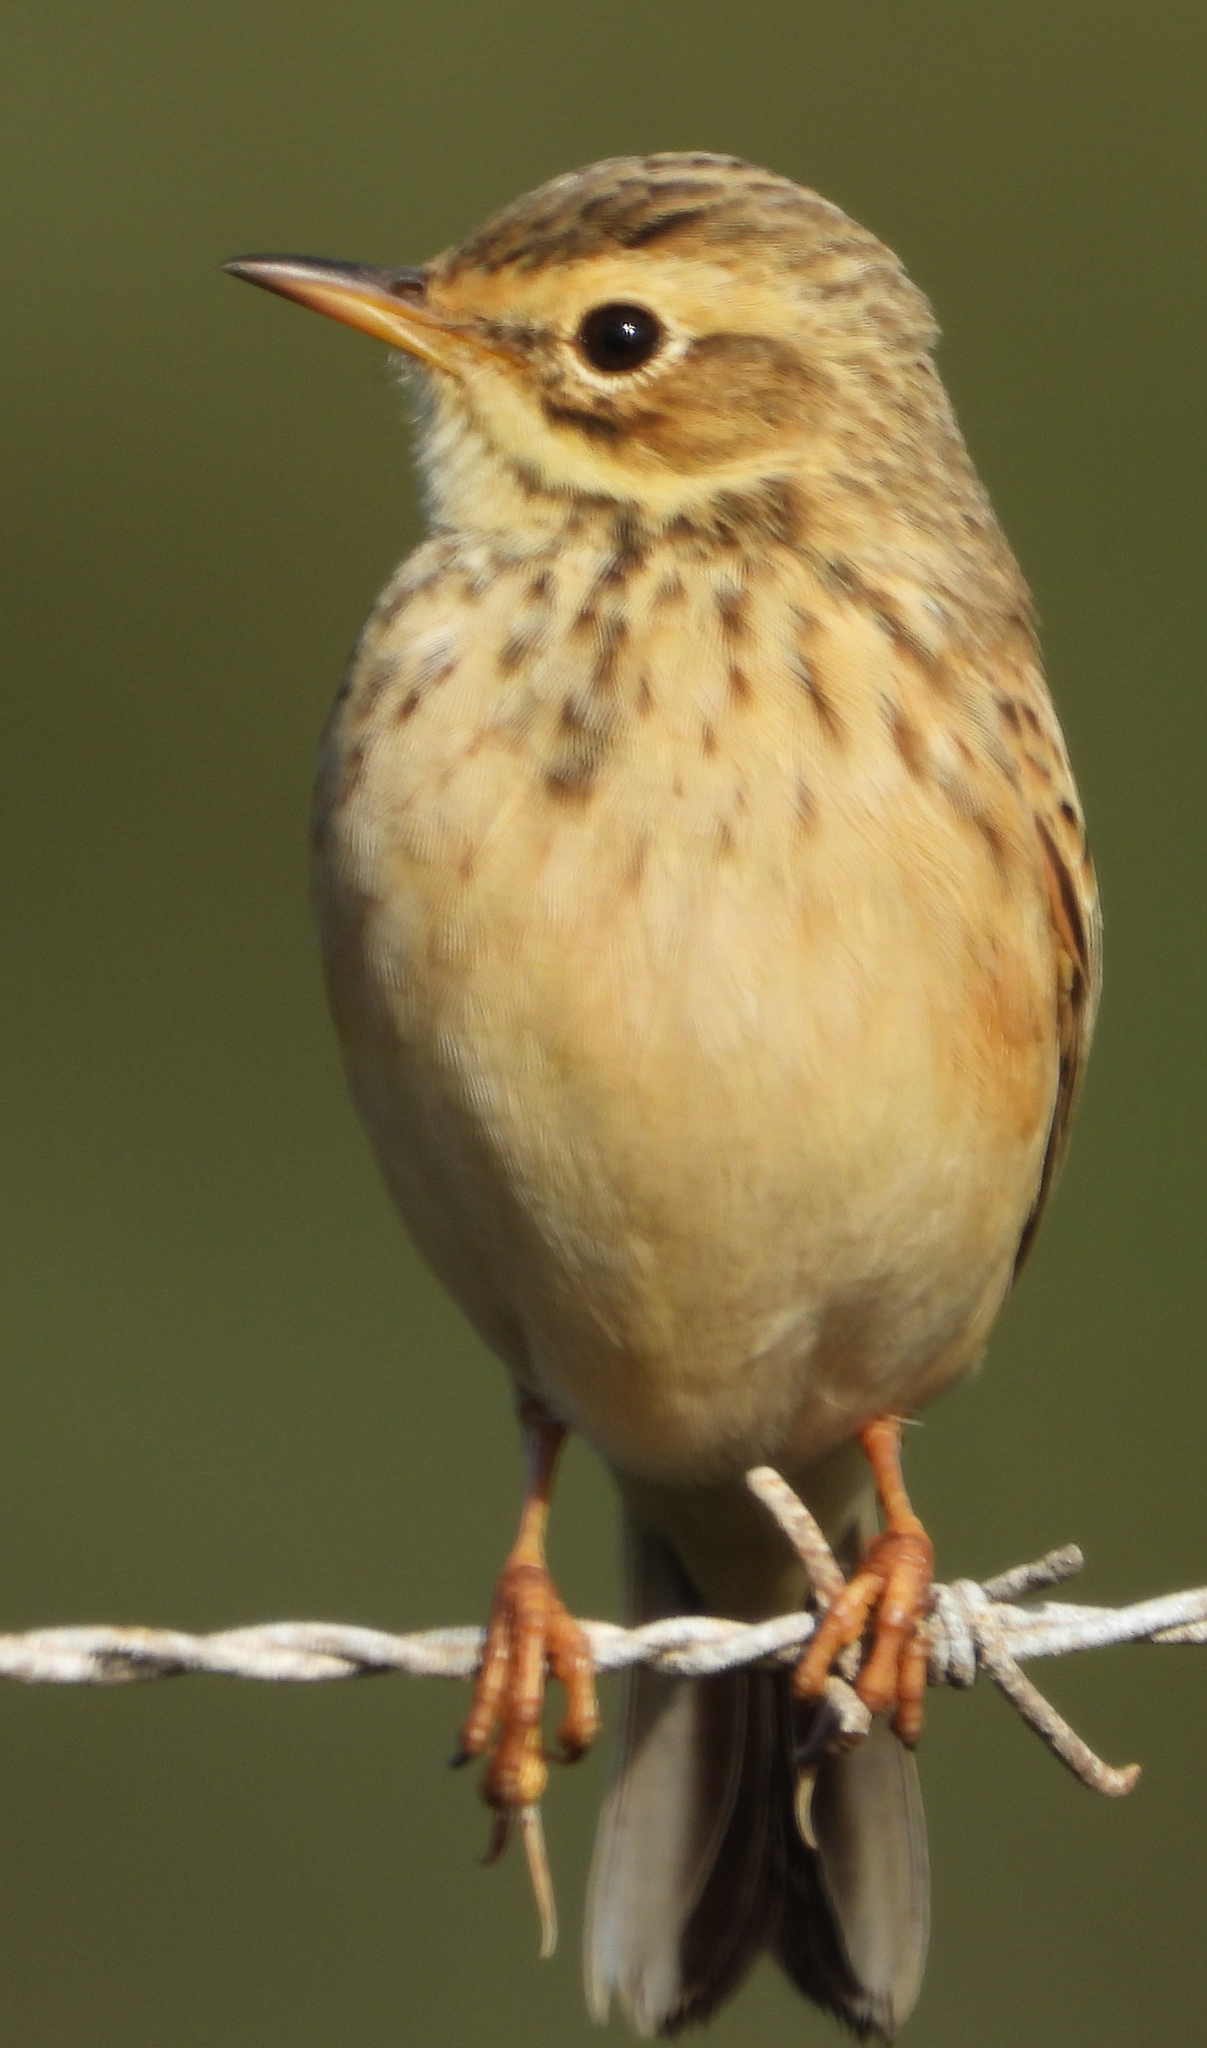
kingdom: Animalia
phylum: Chordata
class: Aves
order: Passeriformes
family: Motacillidae
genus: Anthus
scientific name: Anthus cinnamomeus
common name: African pipit
